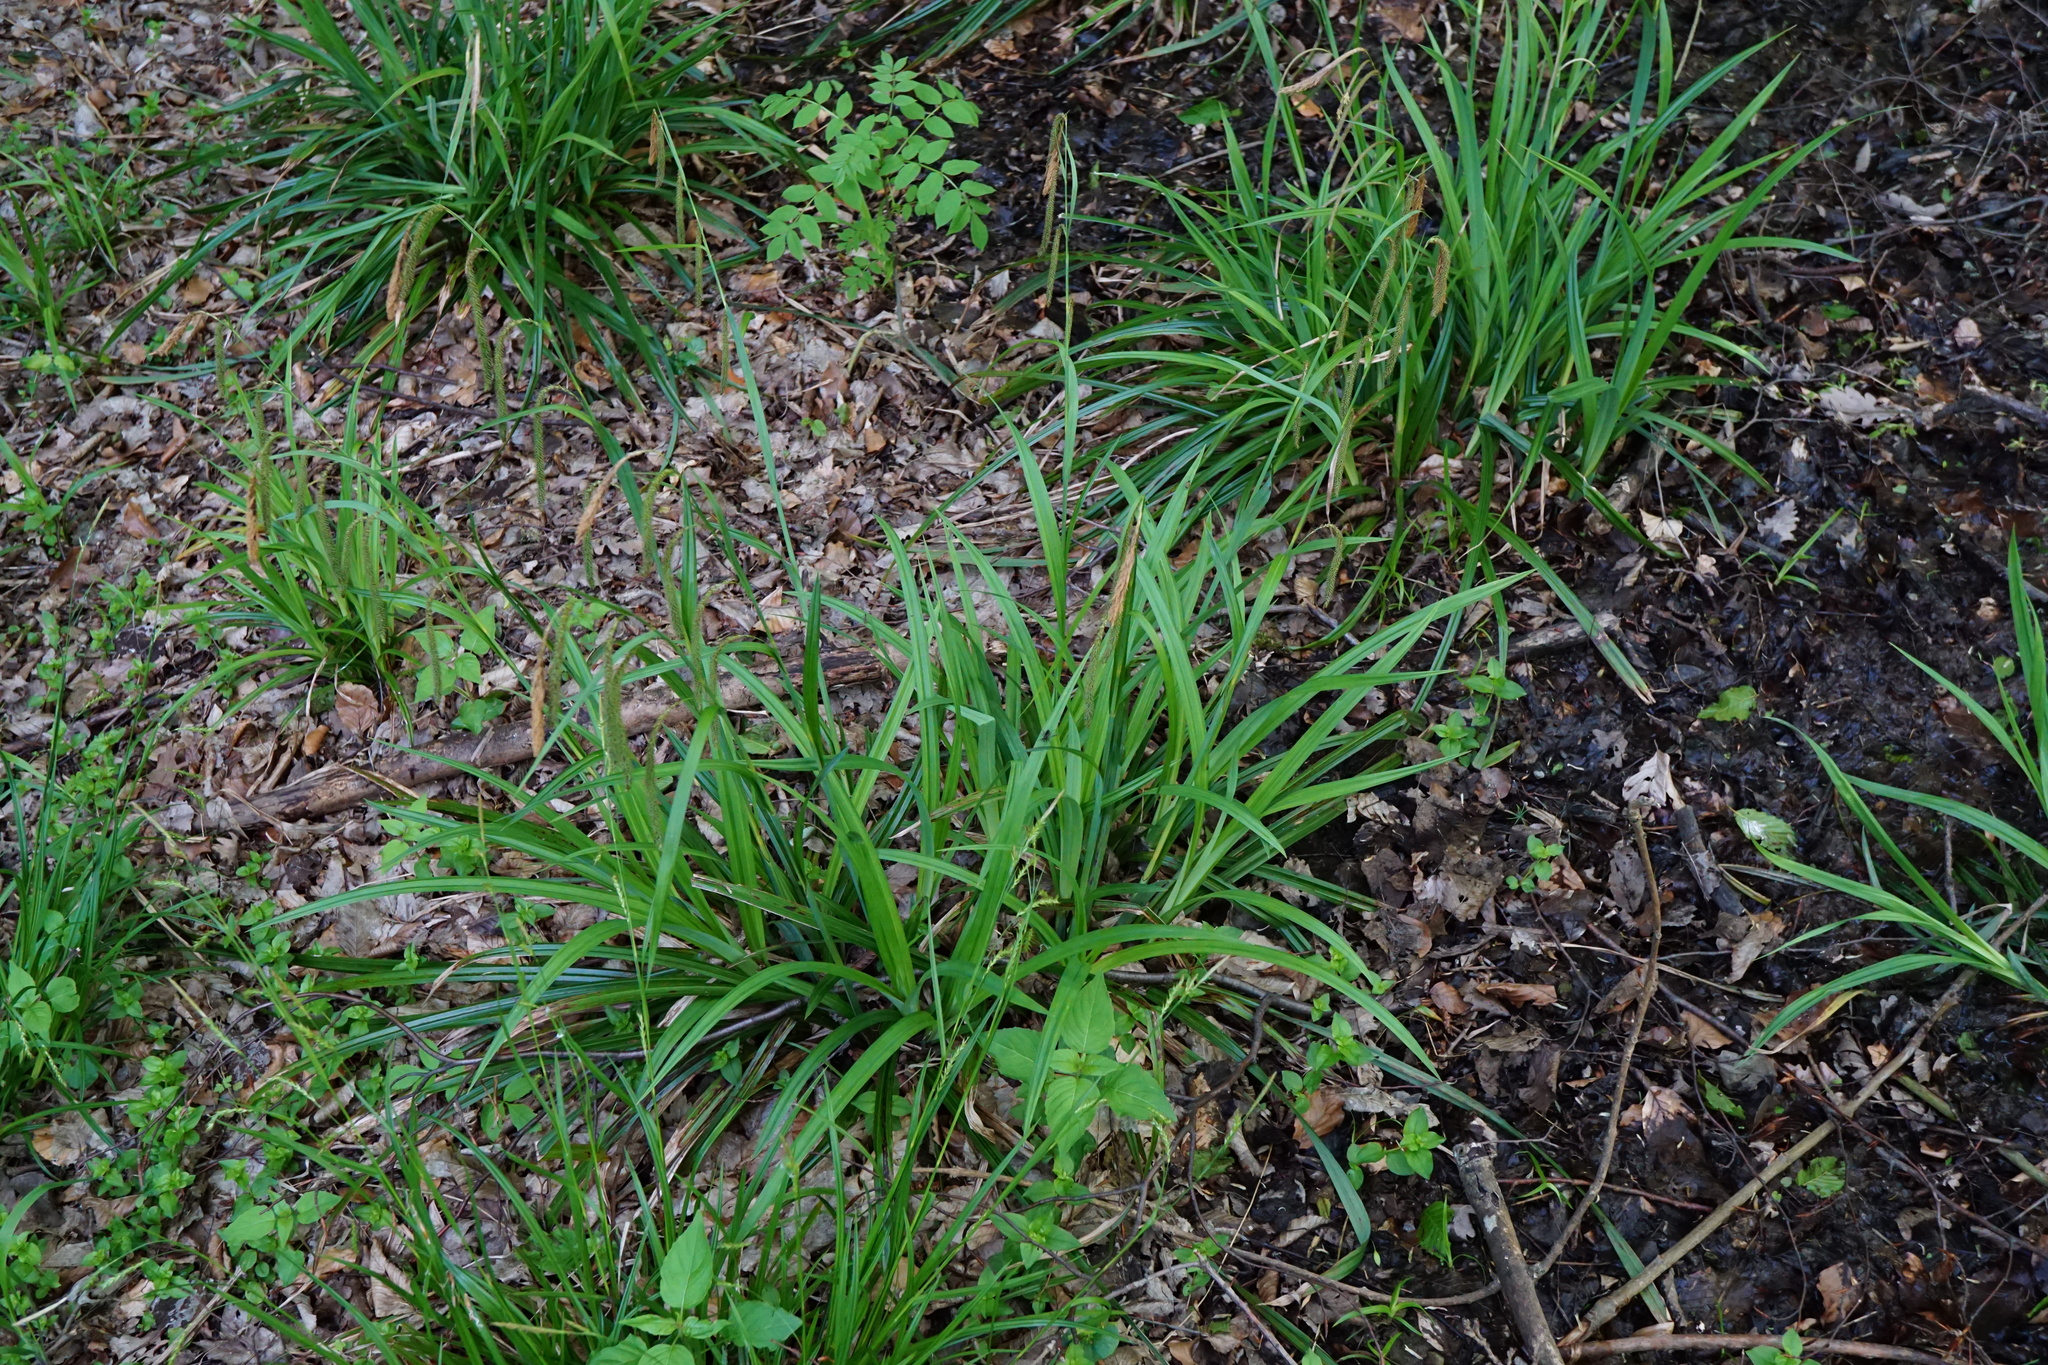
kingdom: Plantae
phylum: Tracheophyta
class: Liliopsida
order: Poales
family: Cyperaceae
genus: Carex
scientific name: Carex pendula
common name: Pendulous sedge
